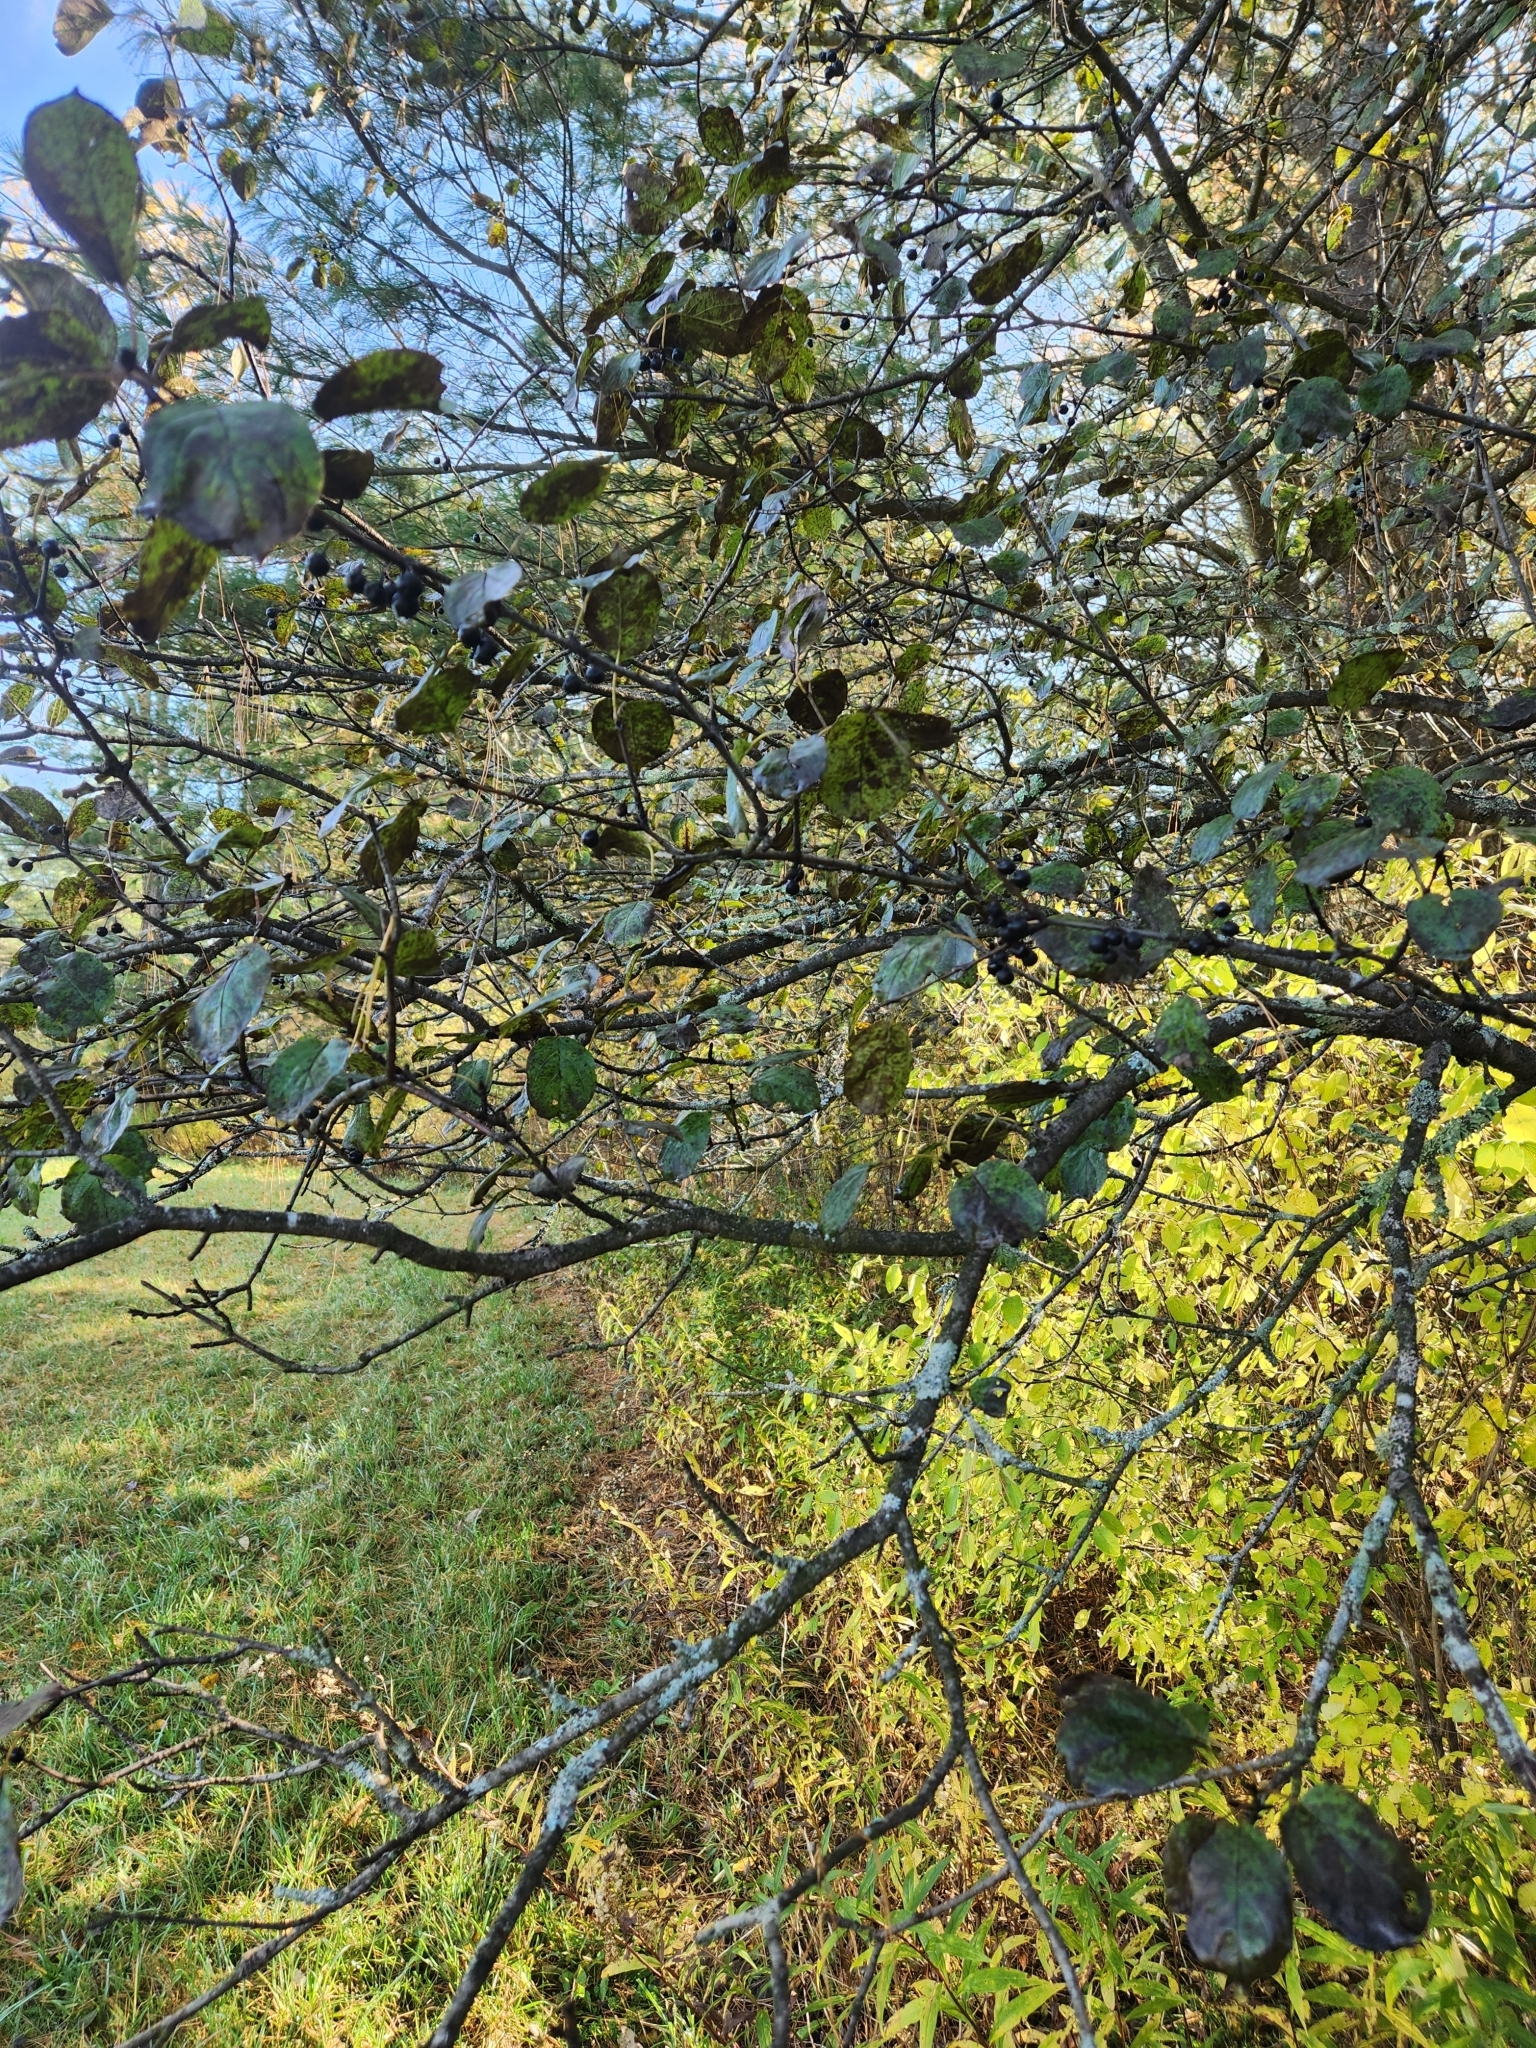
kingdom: Plantae
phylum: Tracheophyta
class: Magnoliopsida
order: Rosales
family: Rhamnaceae
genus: Rhamnus
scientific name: Rhamnus cathartica
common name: Common buckthorn
